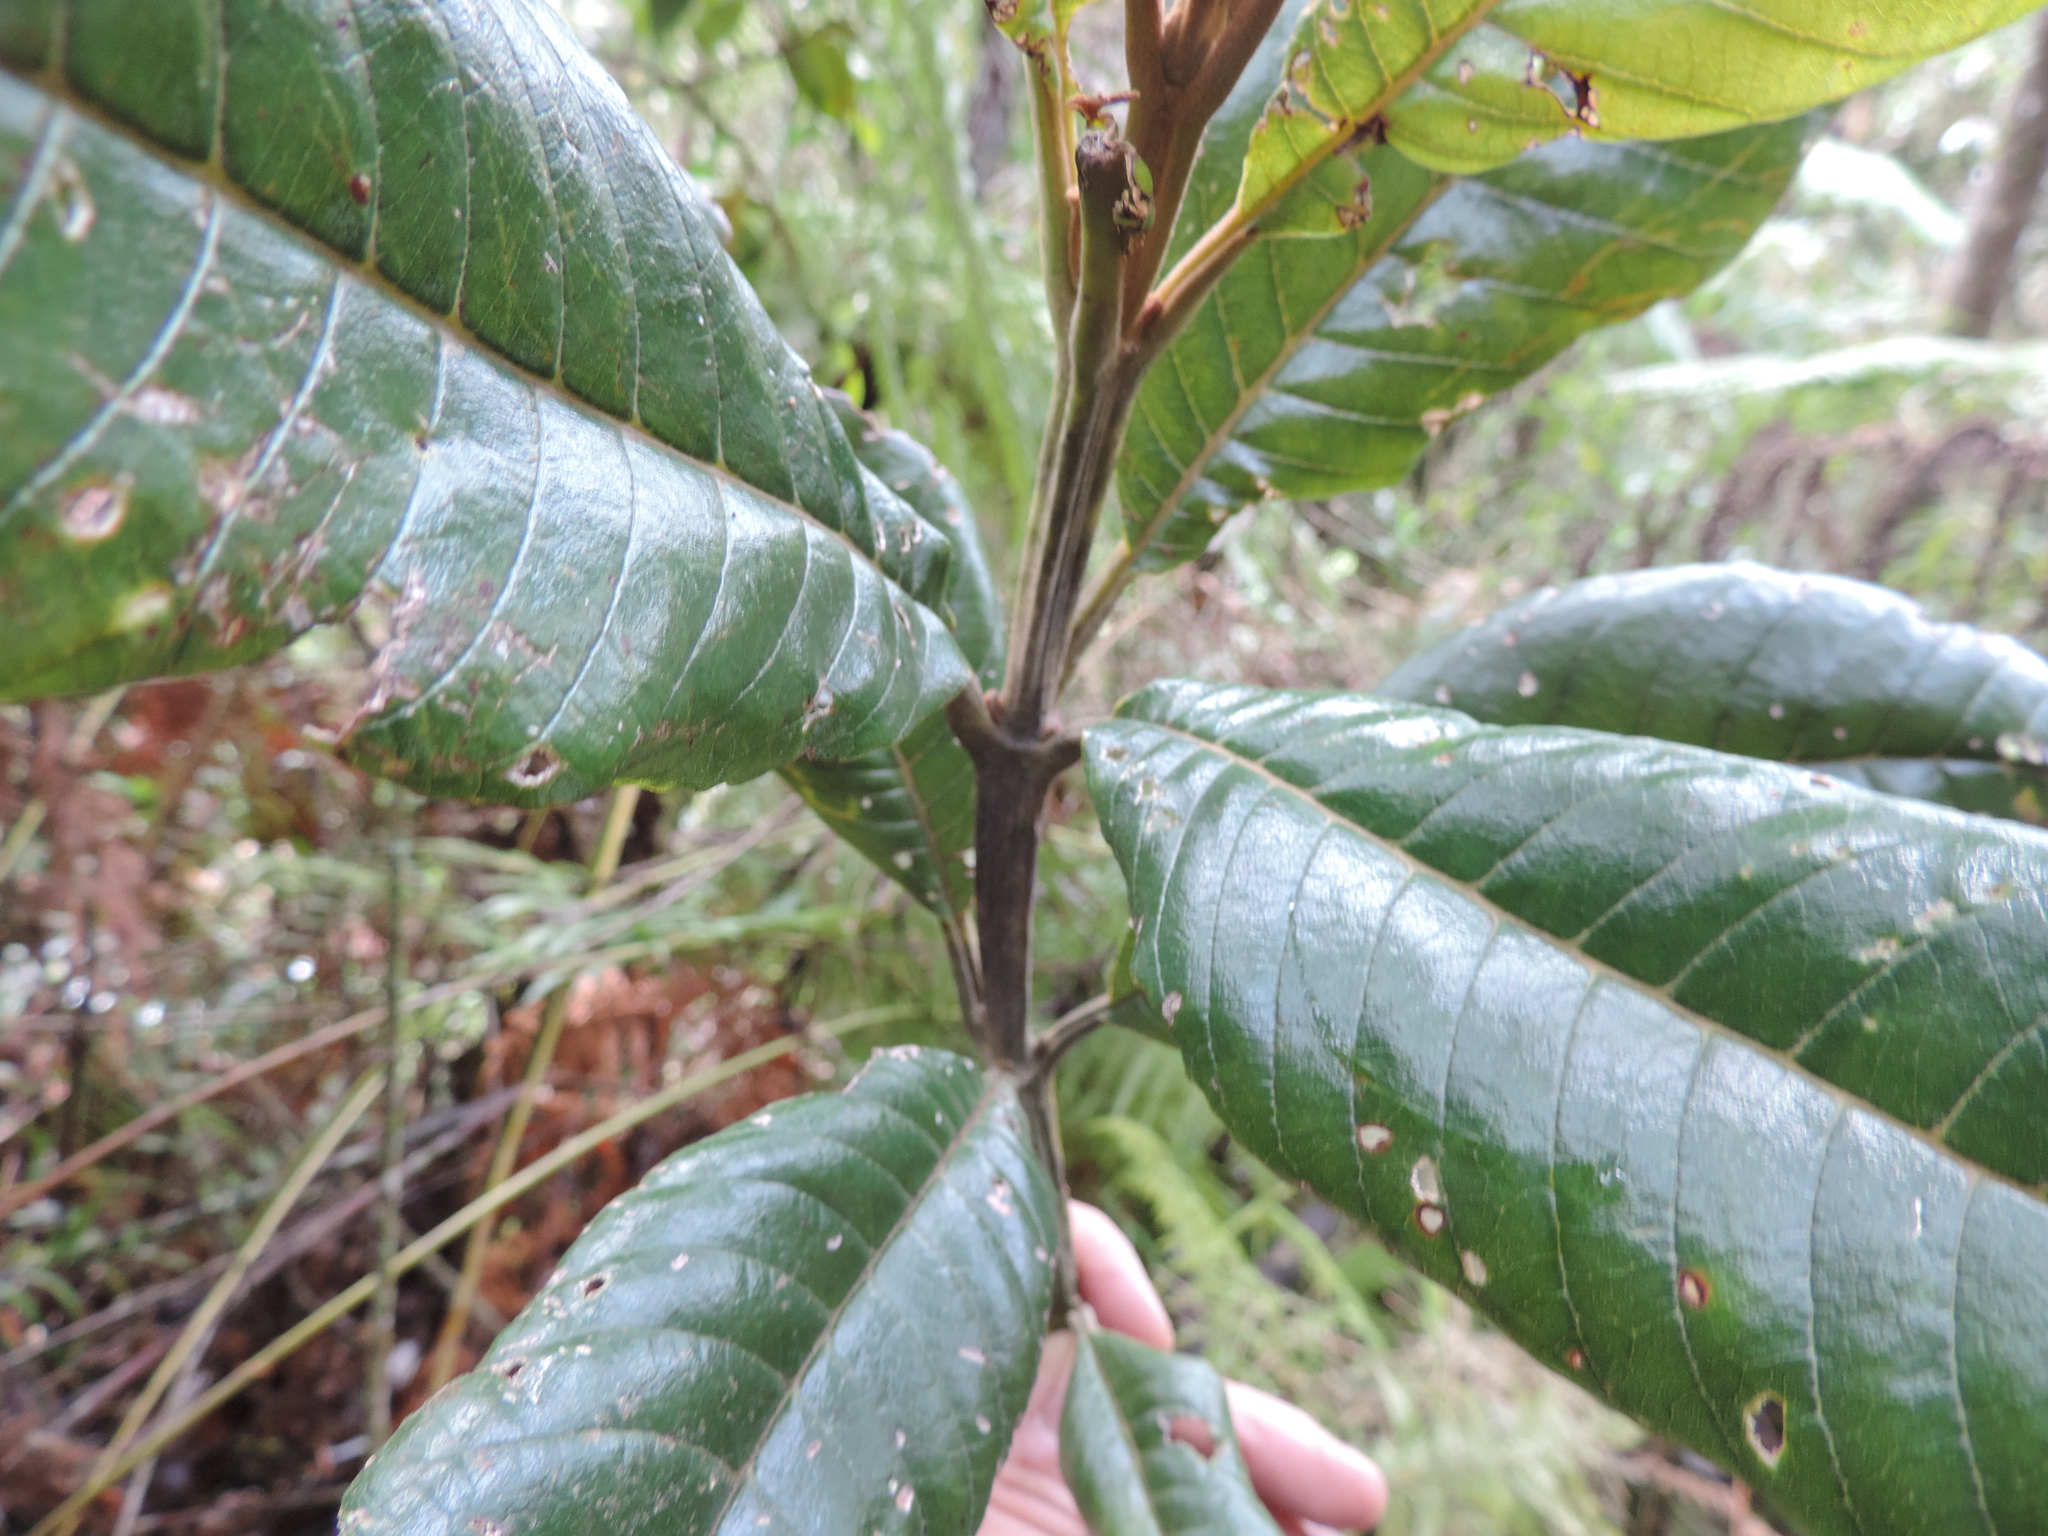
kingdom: Plantae
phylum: Tracheophyta
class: Magnoliopsida
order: Oxalidales
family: Brunelliaceae
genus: Brunellia
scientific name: Brunellia acutangula
